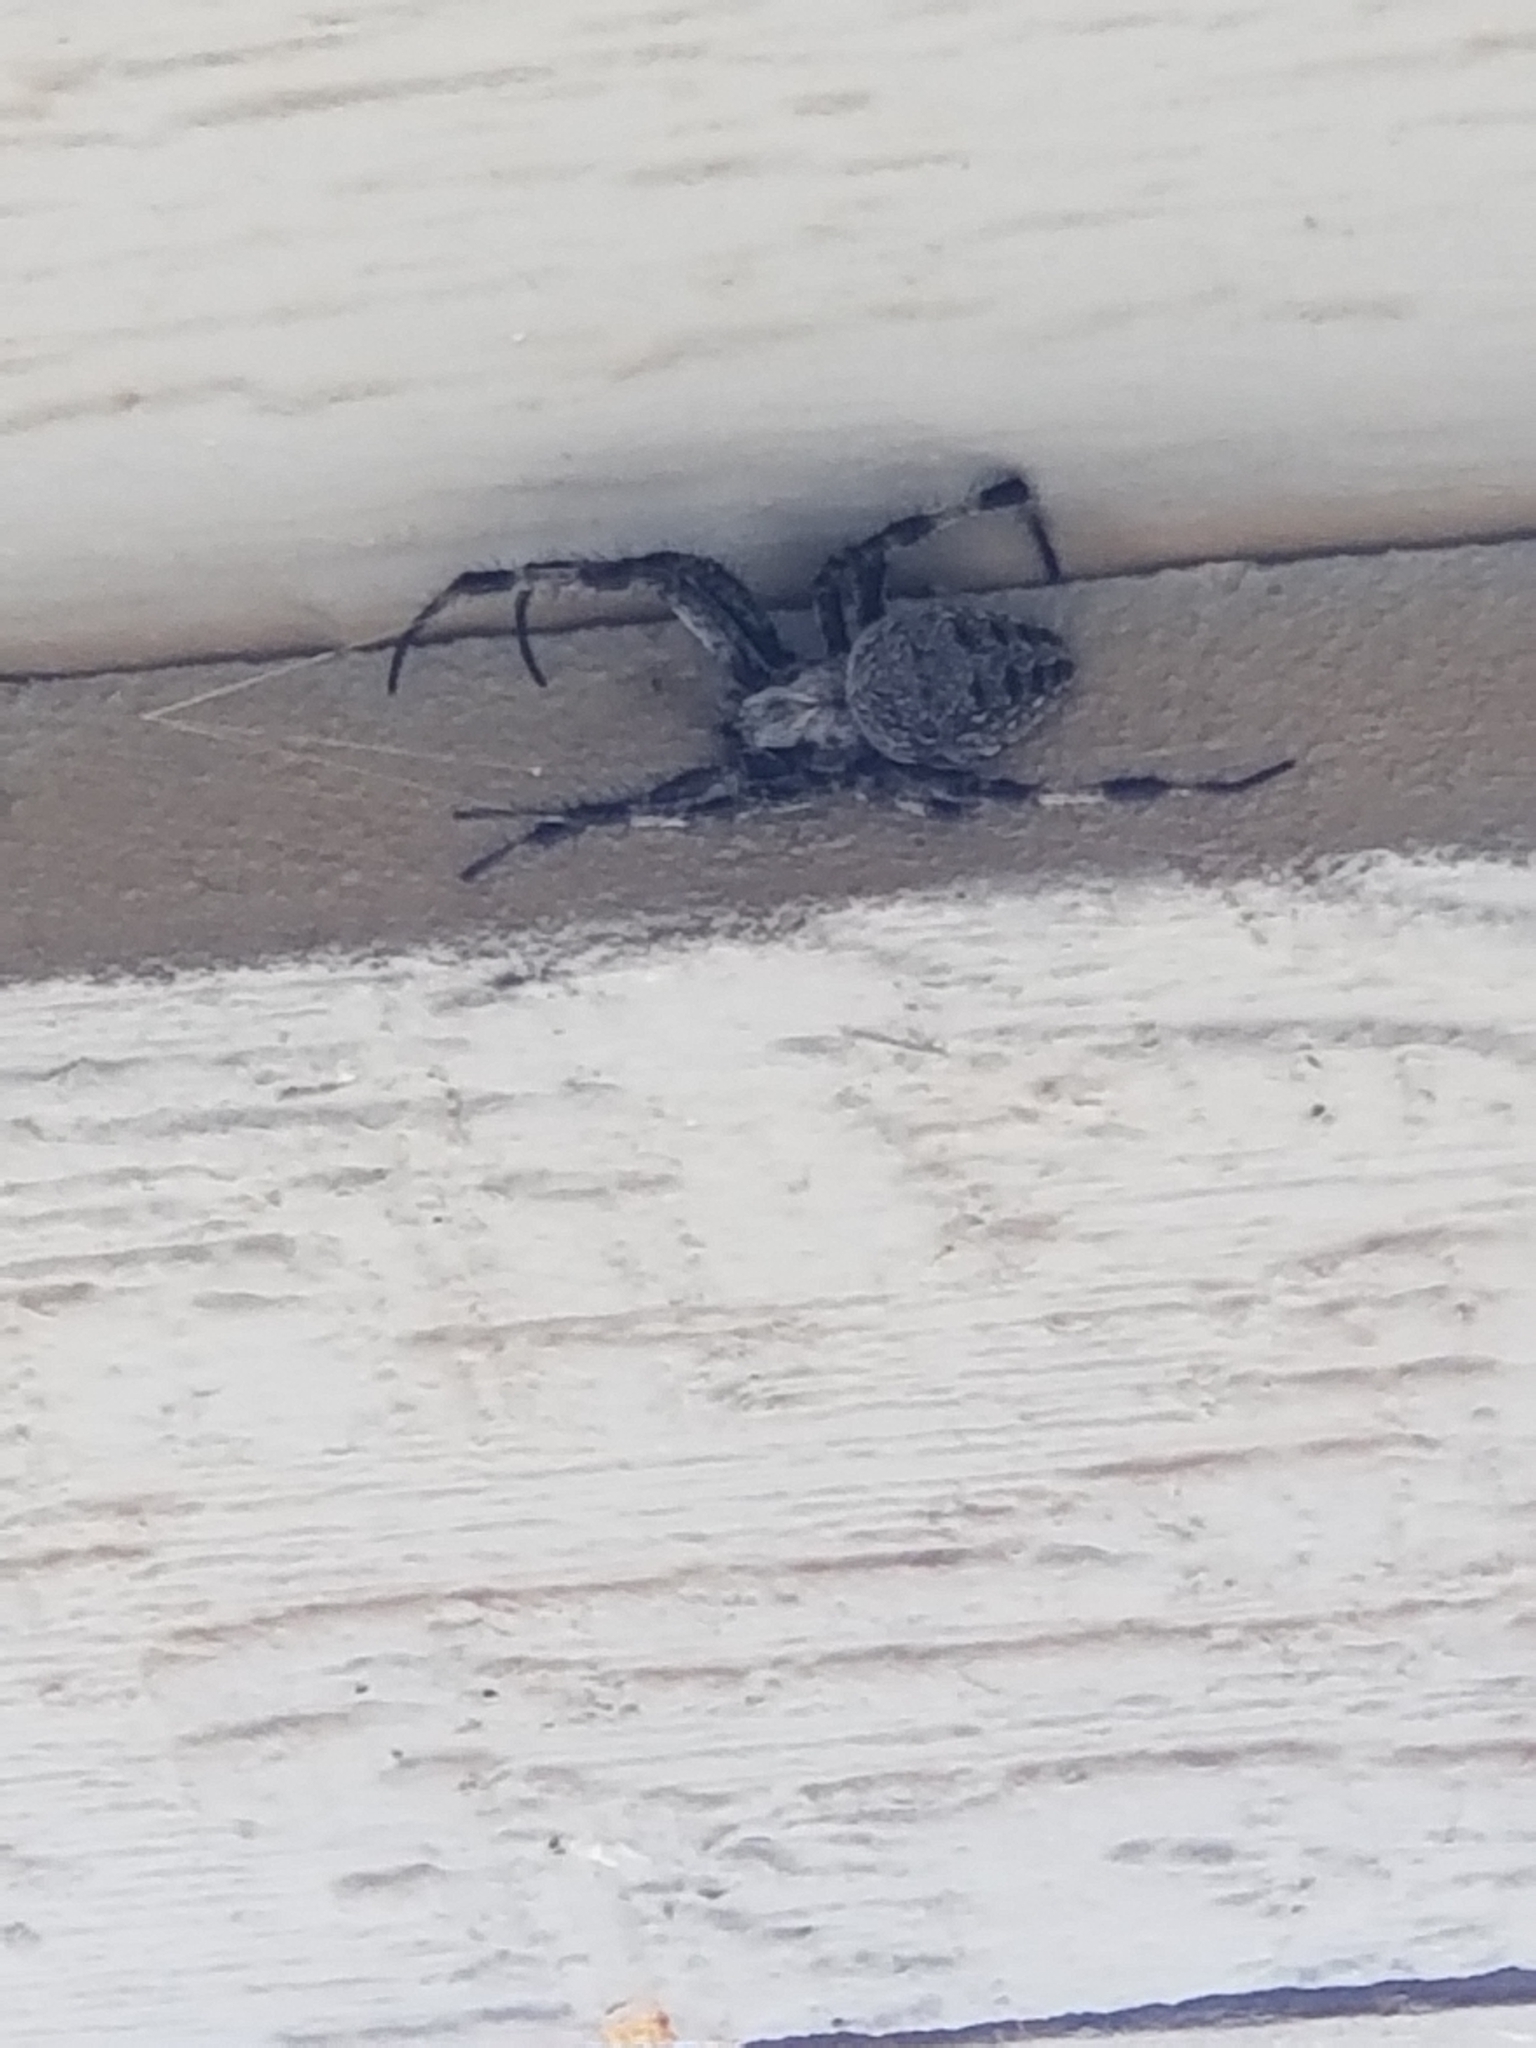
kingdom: Animalia
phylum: Arthropoda
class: Arachnida
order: Araneae
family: Araneidae
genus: Neoscona
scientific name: Neoscona oaxacensis
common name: Orb weavers
